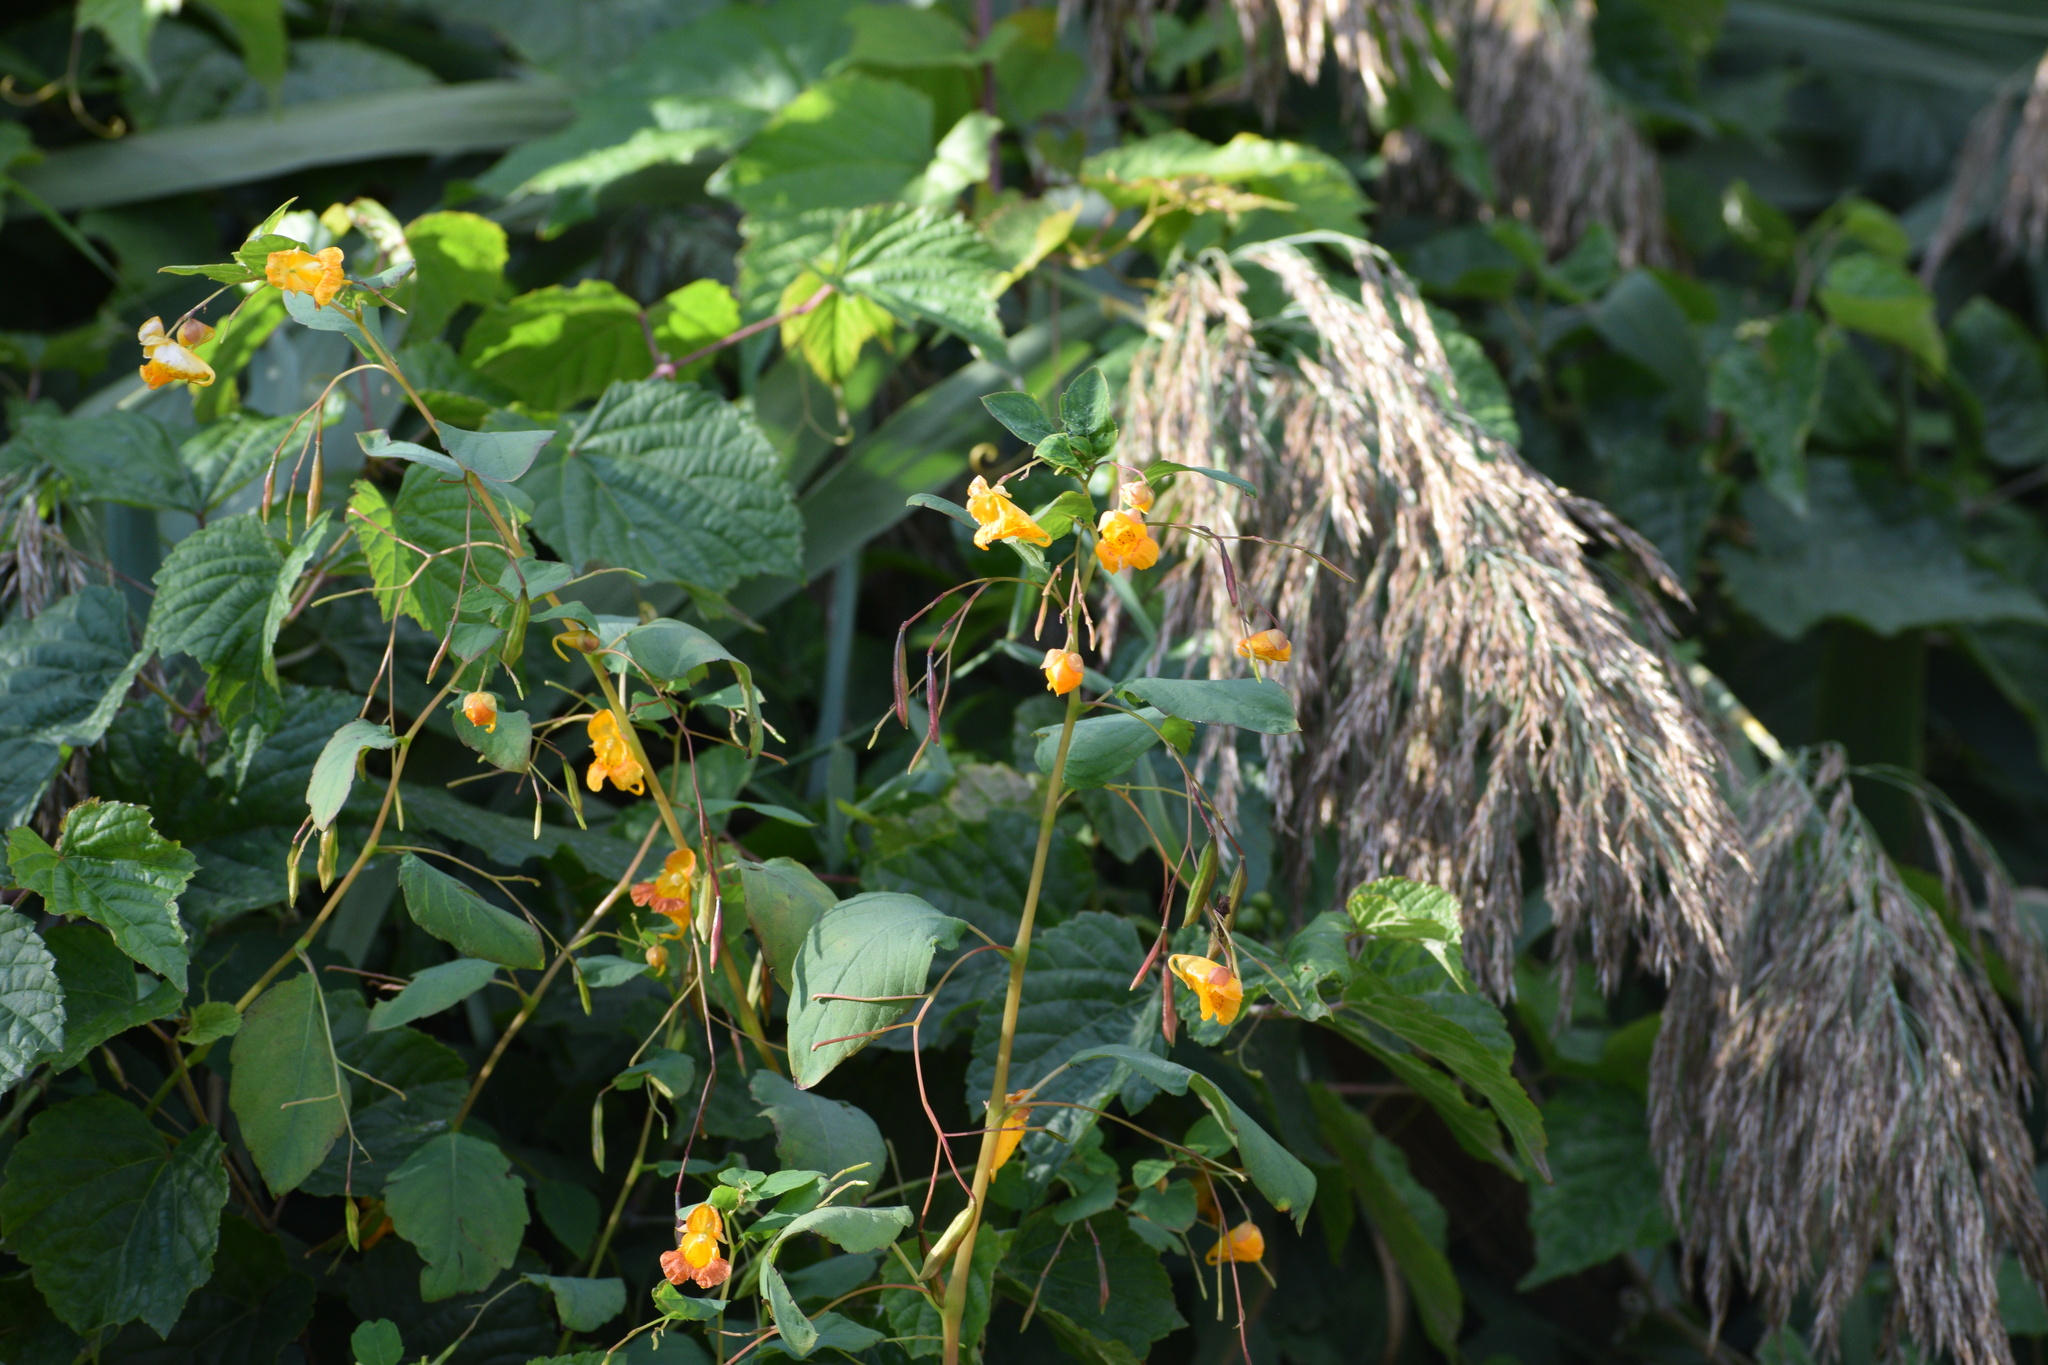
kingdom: Plantae
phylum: Tracheophyta
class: Magnoliopsida
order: Ericales
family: Balsaminaceae
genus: Impatiens
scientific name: Impatiens capensis
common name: Orange balsam
